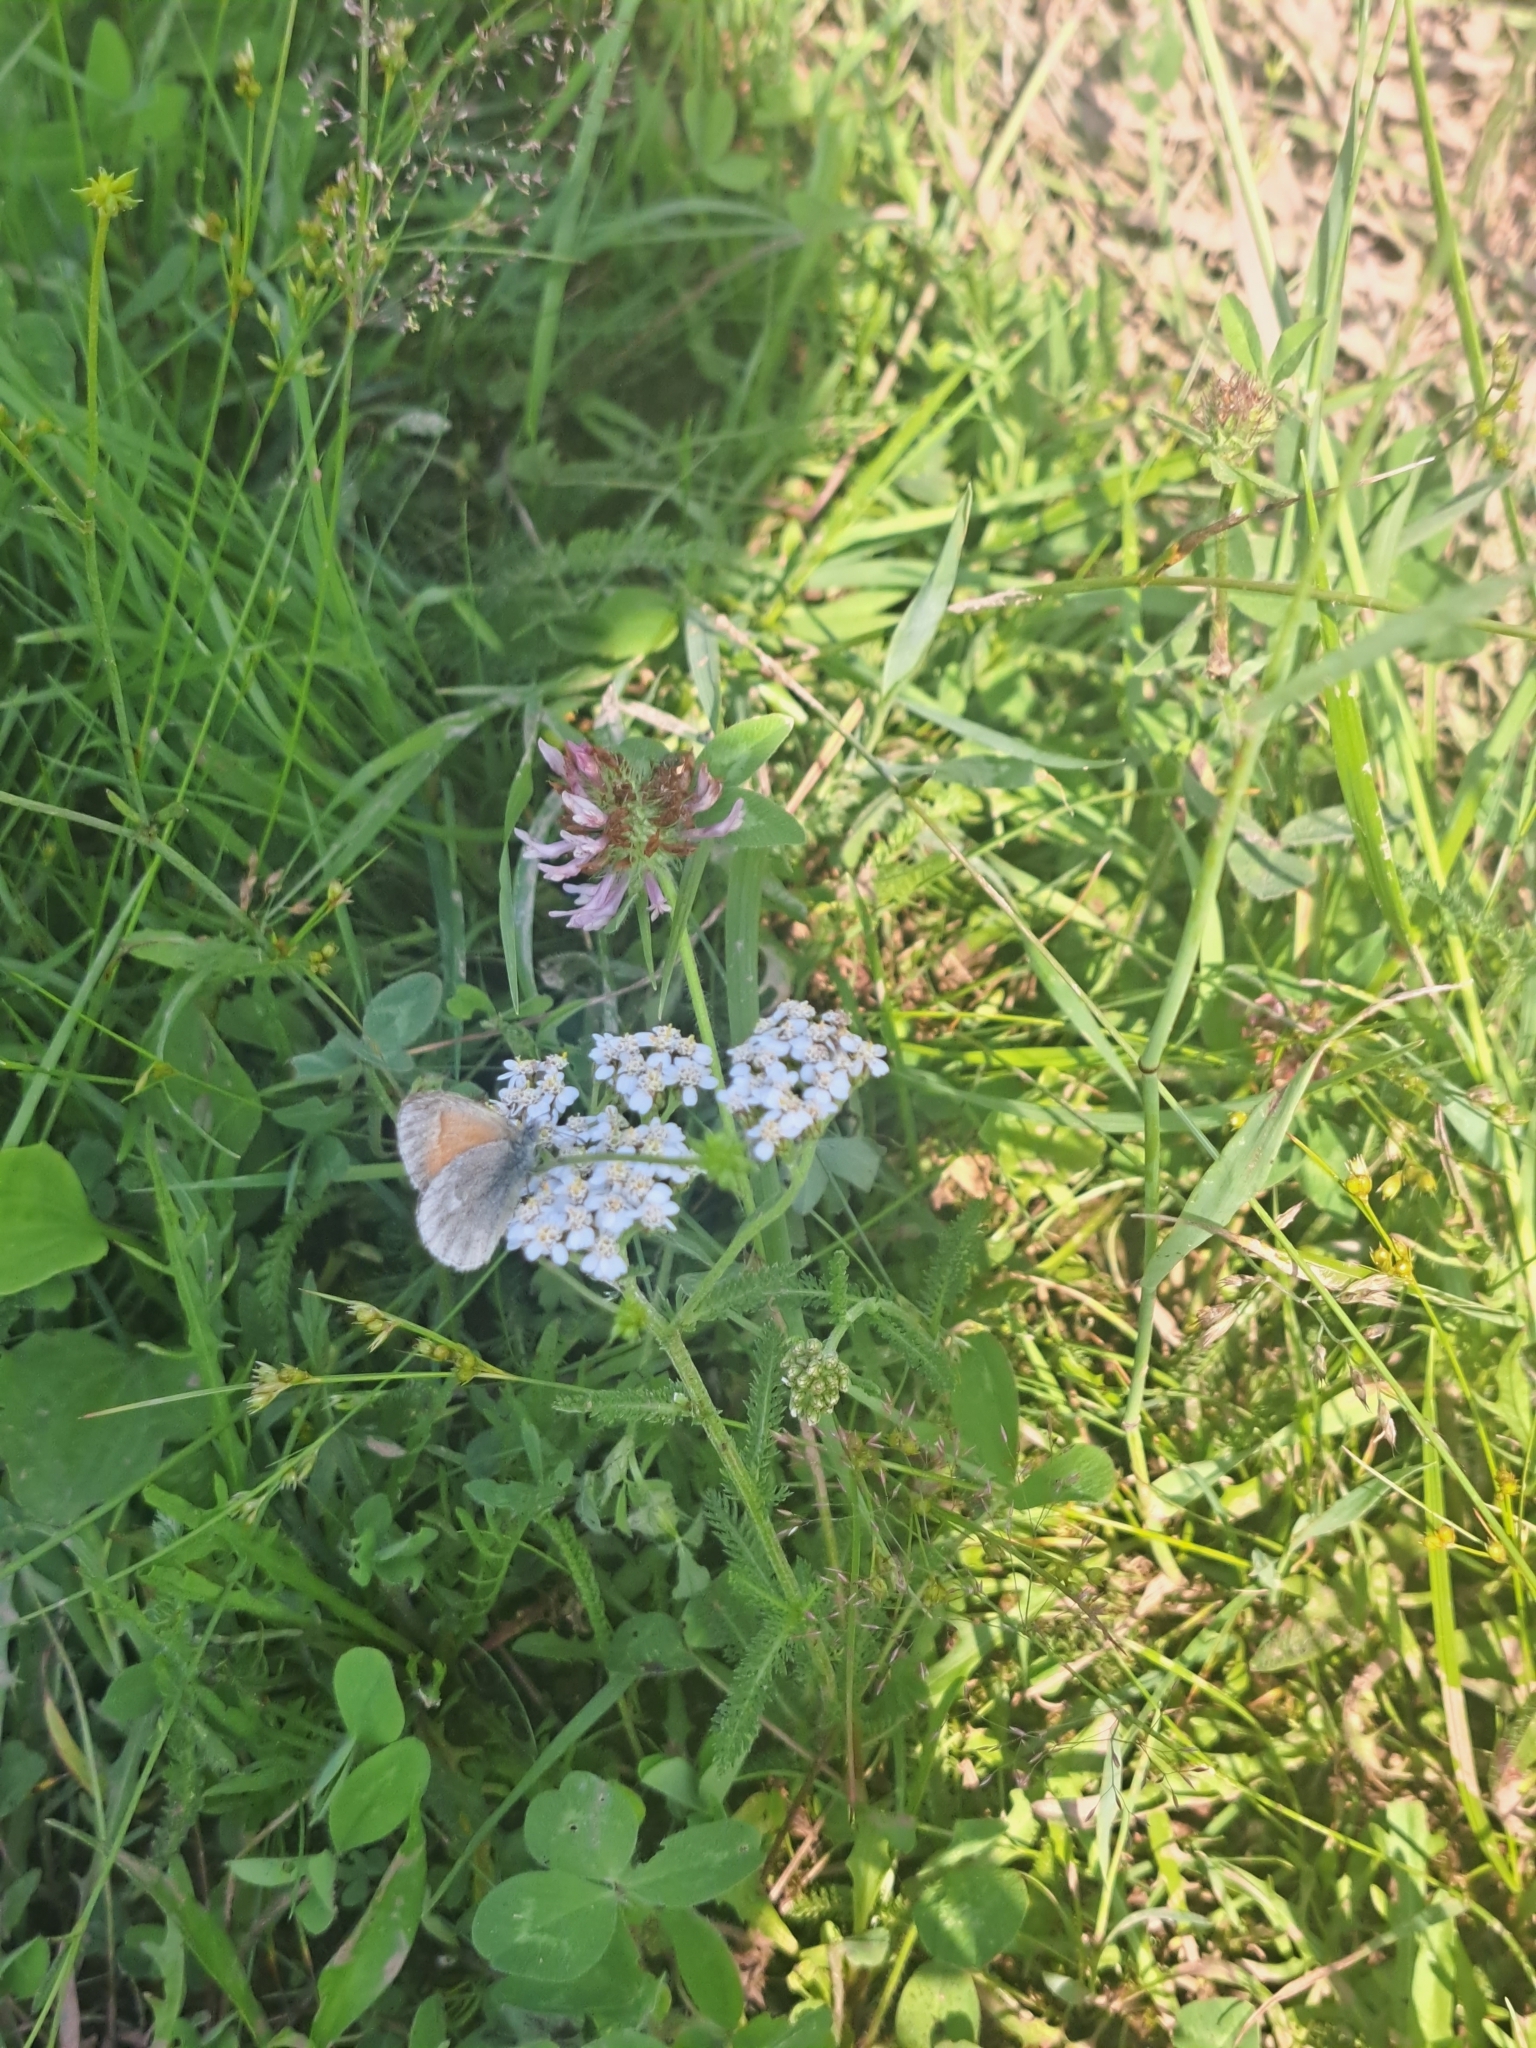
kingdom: Animalia
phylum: Arthropoda
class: Insecta
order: Lepidoptera
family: Nymphalidae
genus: Coenonympha
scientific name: Coenonympha california
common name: Common ringlet
